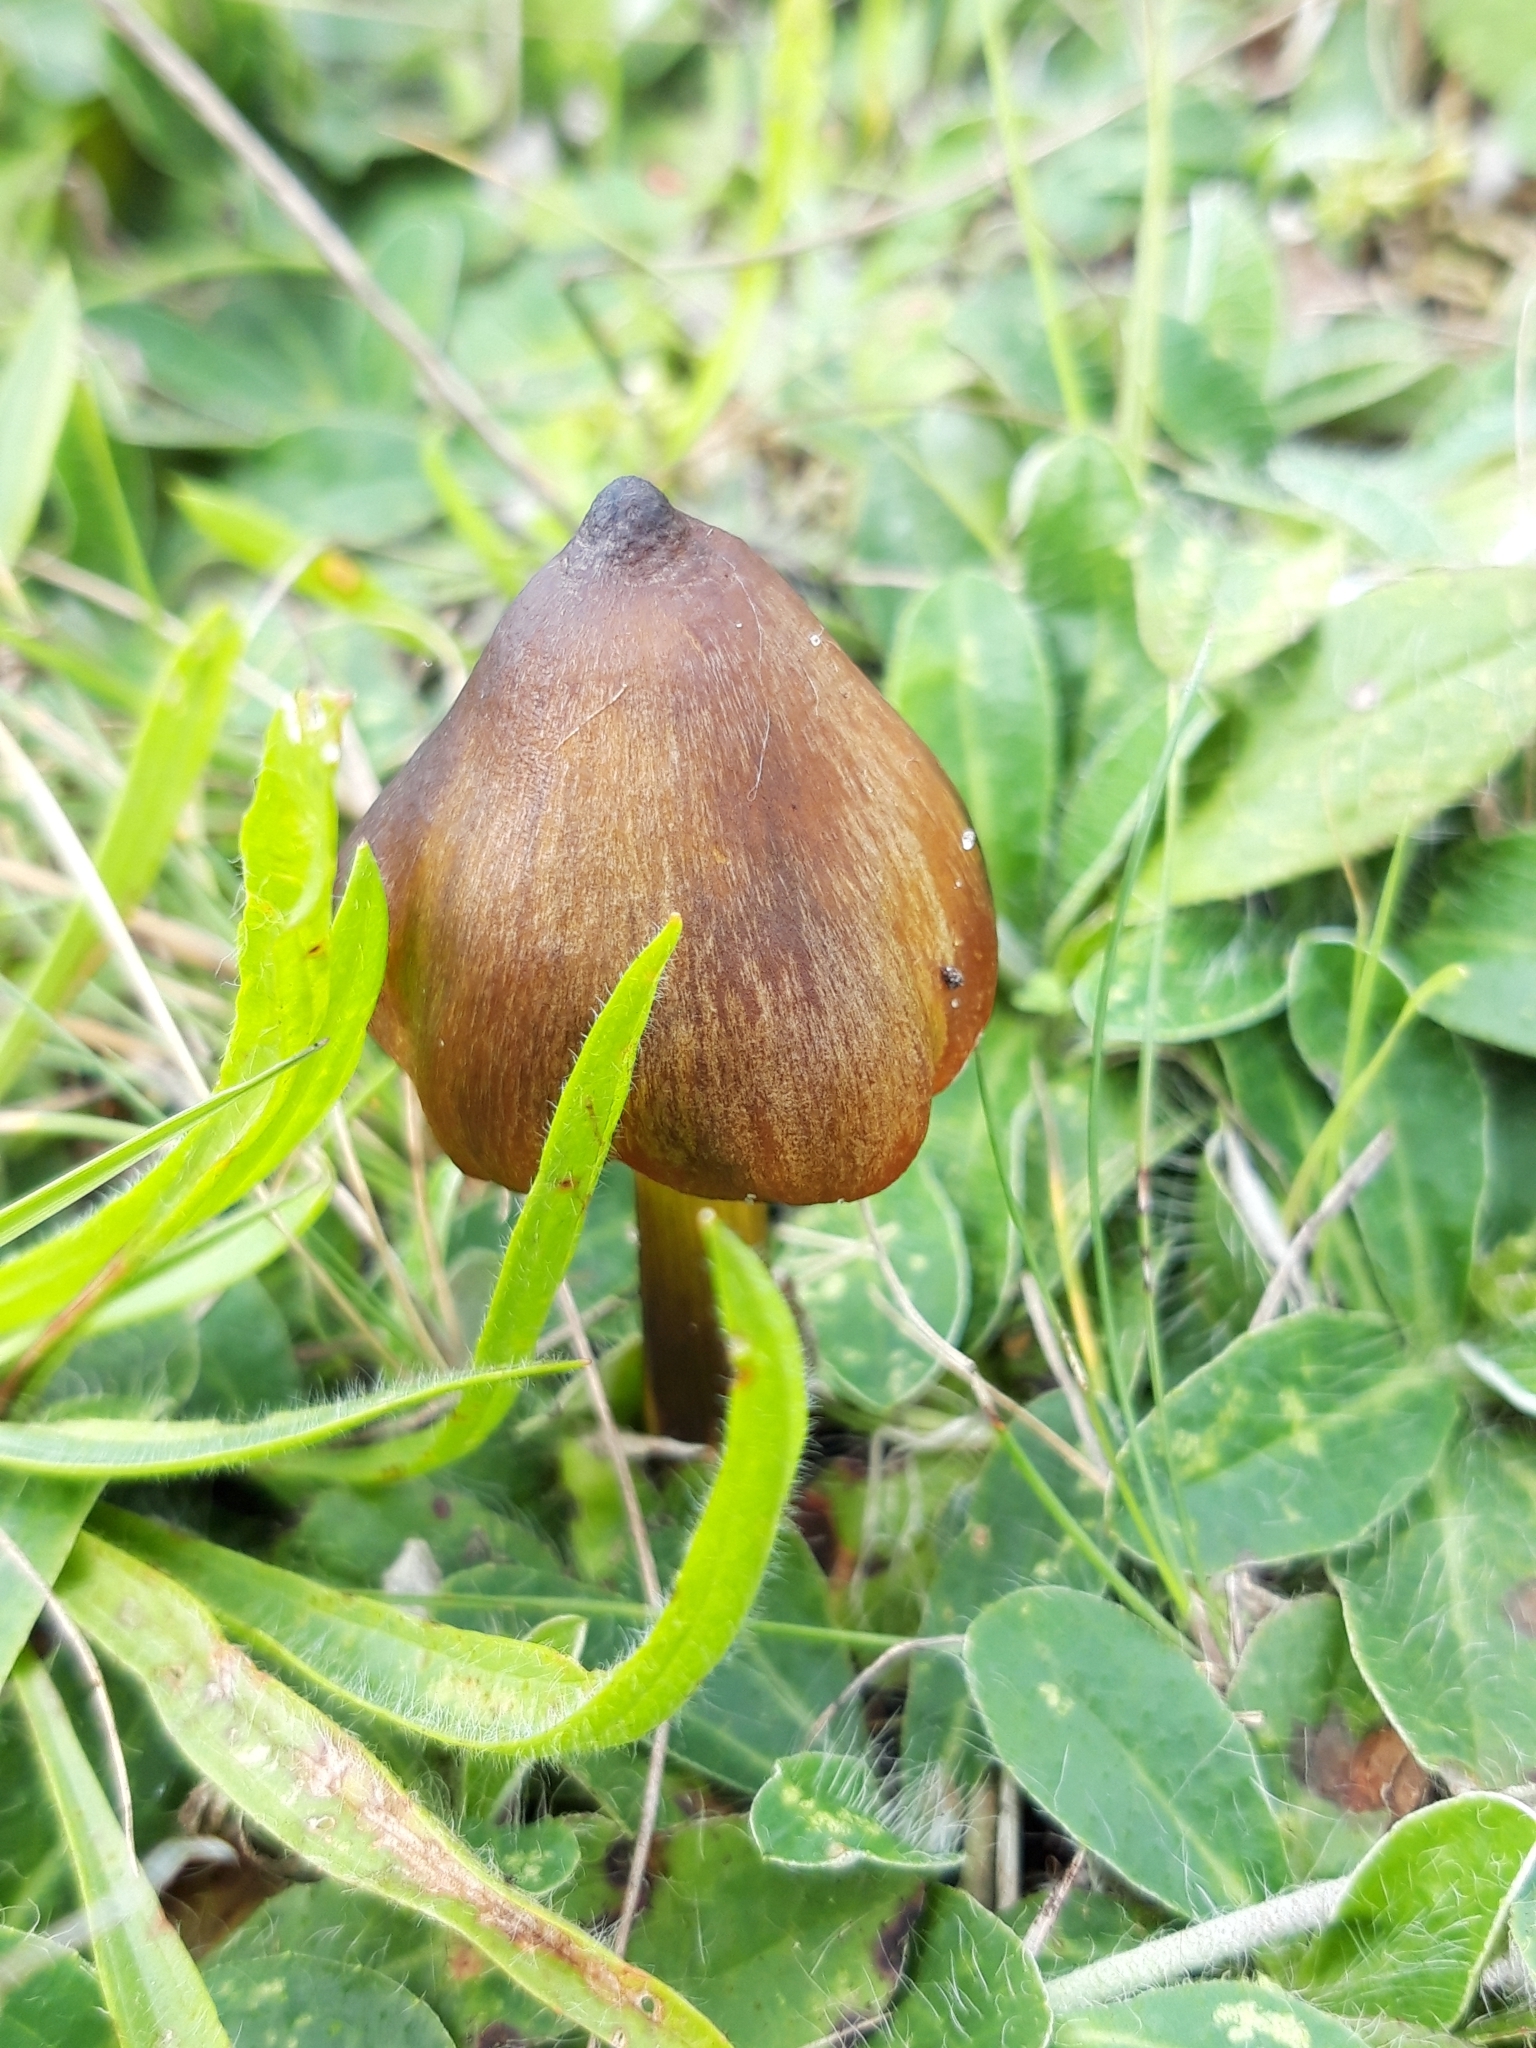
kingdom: Fungi
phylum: Basidiomycota
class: Agaricomycetes
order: Agaricales
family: Hygrophoraceae
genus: Hygrocybe
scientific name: Hygrocybe conica
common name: Blackening wax-cap
